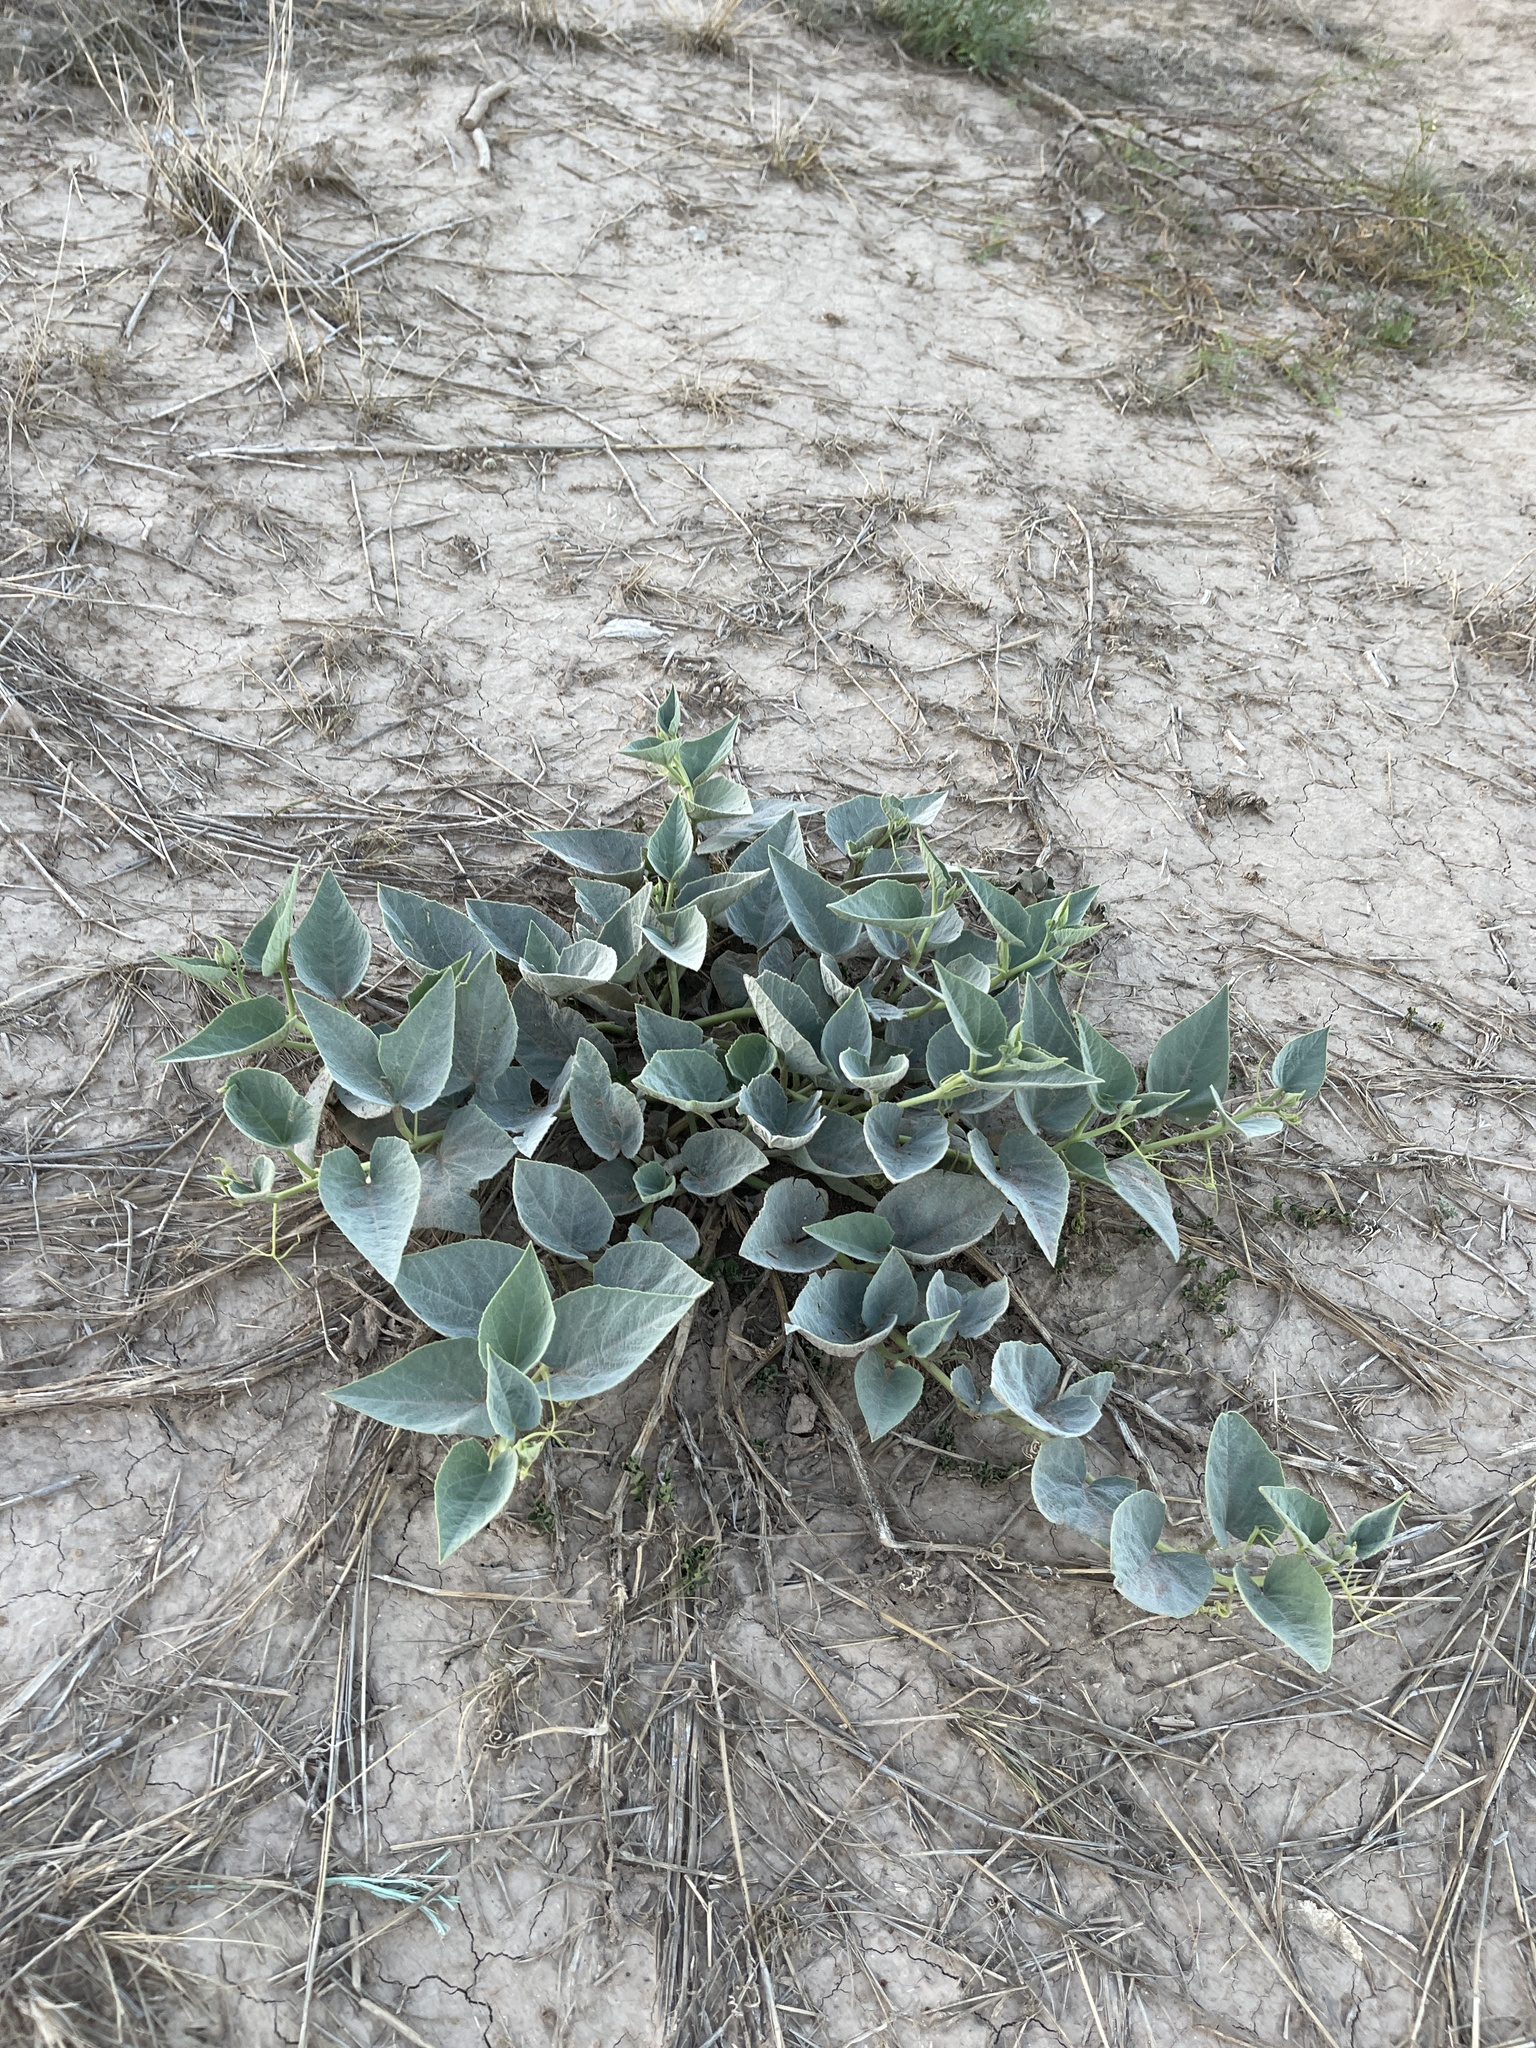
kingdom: Plantae
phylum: Tracheophyta
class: Magnoliopsida
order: Cucurbitales
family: Cucurbitaceae
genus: Cucurbita
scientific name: Cucurbita foetidissima
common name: Buffalo gourd
